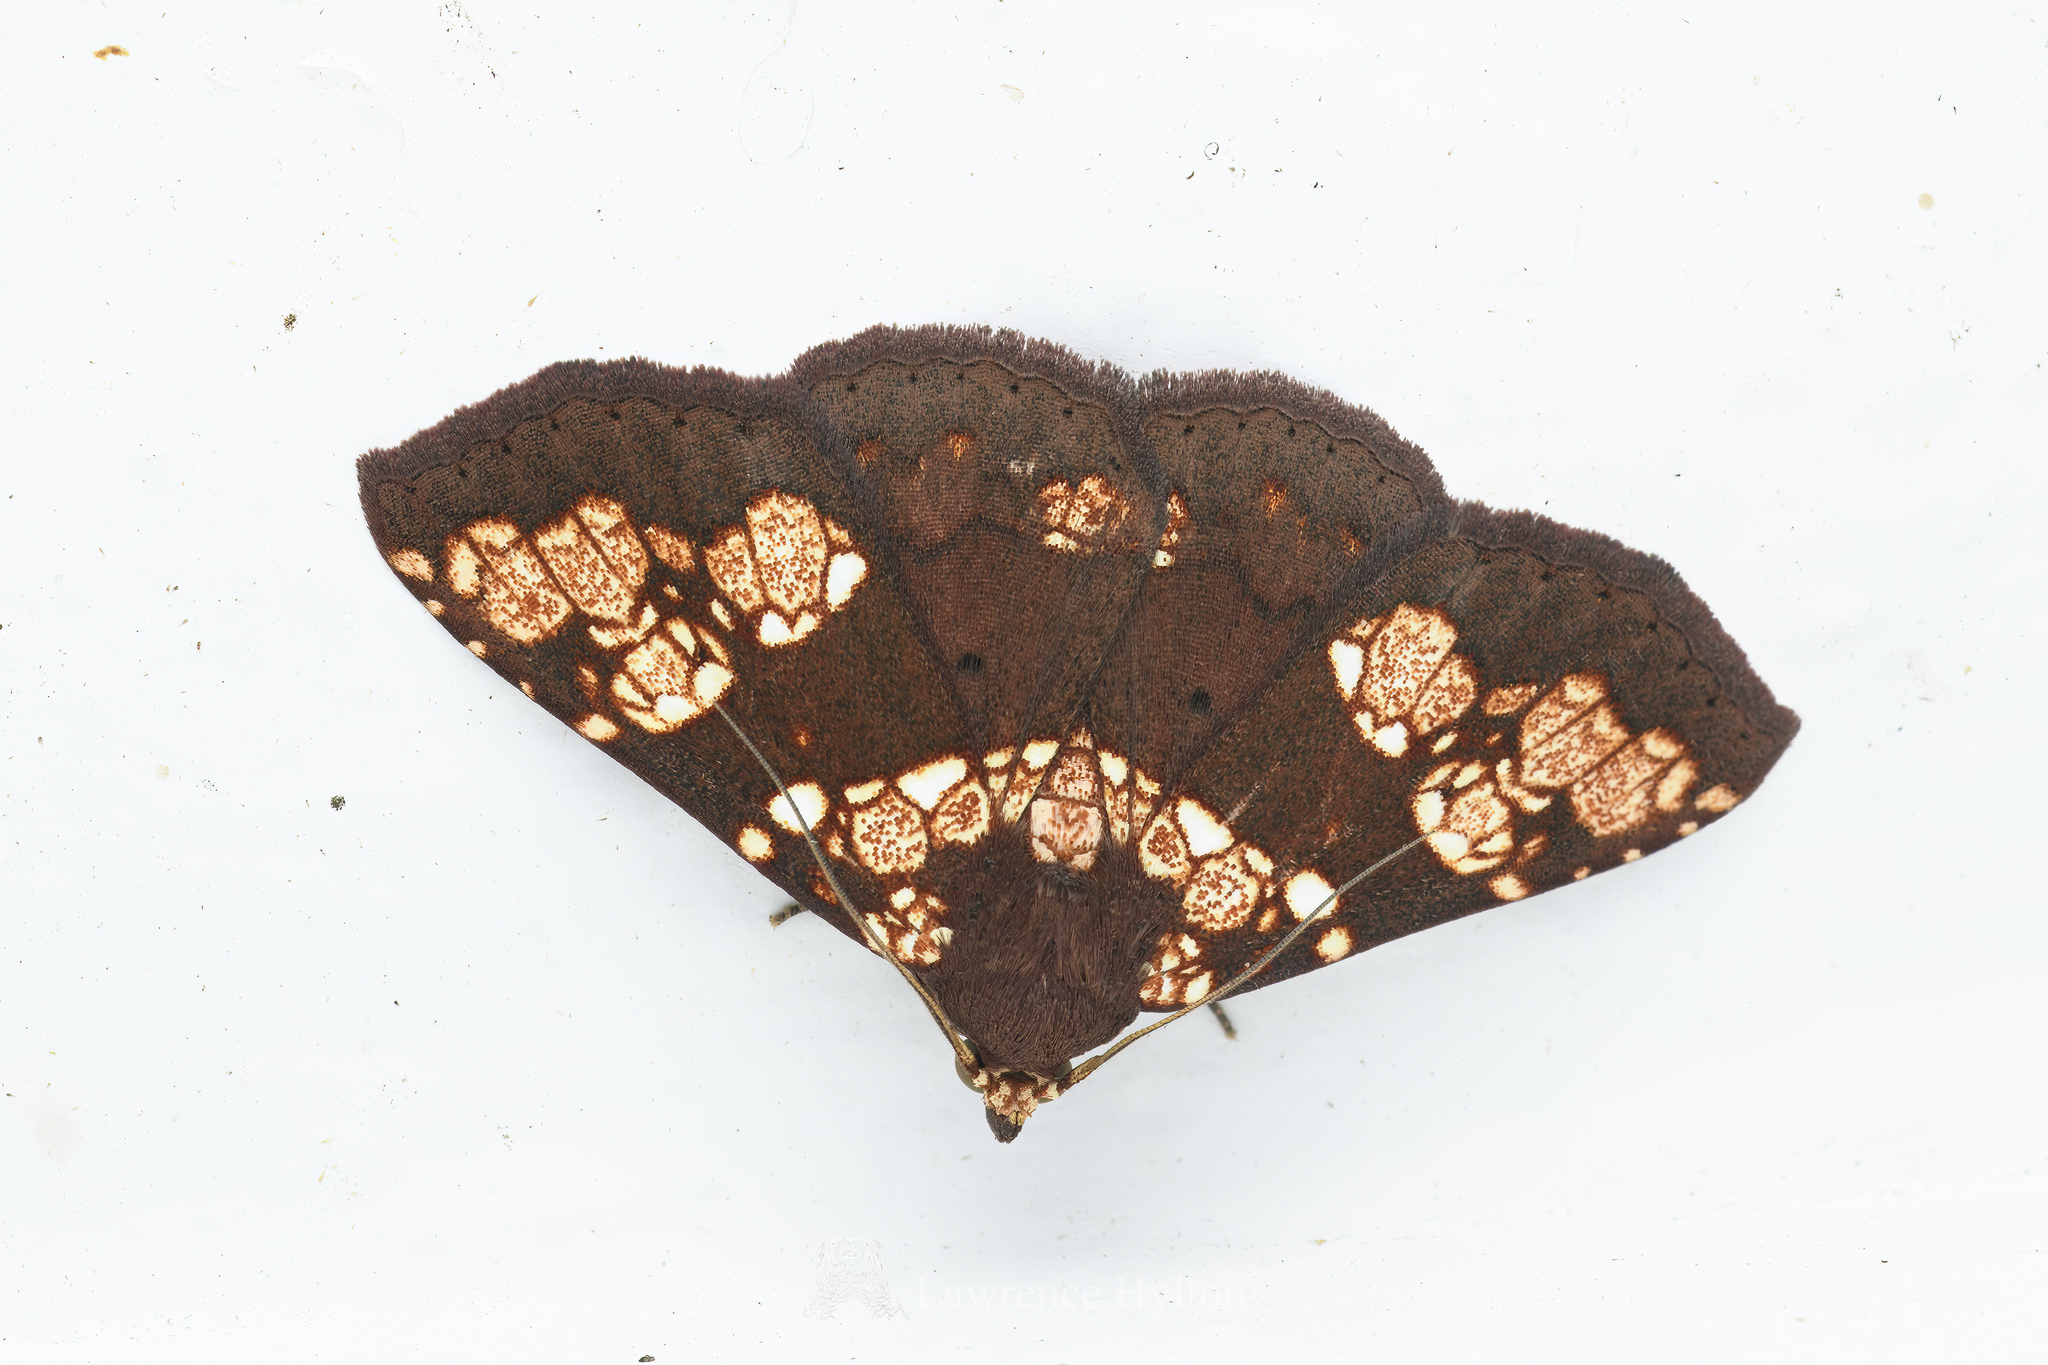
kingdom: Animalia
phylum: Arthropoda
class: Insecta
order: Lepidoptera
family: Erebidae
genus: Saroba
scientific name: Saroba pustulifera
